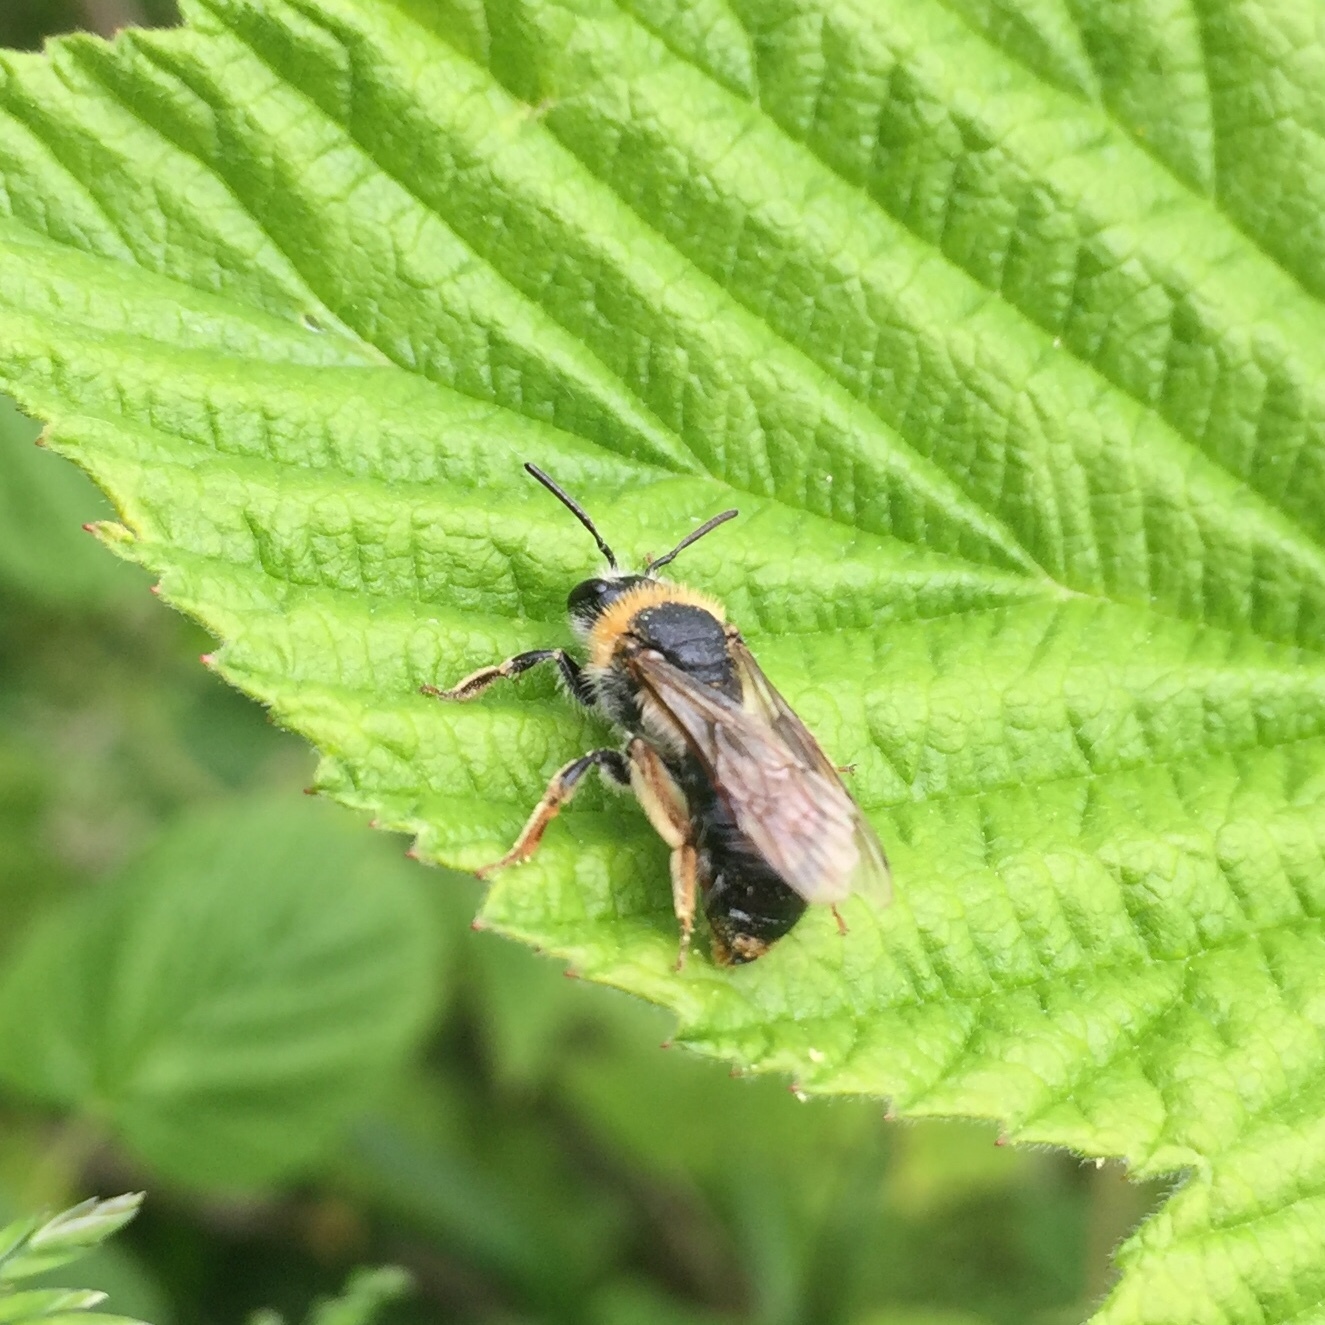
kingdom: Animalia
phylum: Arthropoda
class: Insecta
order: Hymenoptera
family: Andrenidae
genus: Andrena
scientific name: Andrena haemorrhoa
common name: Early mining bee
